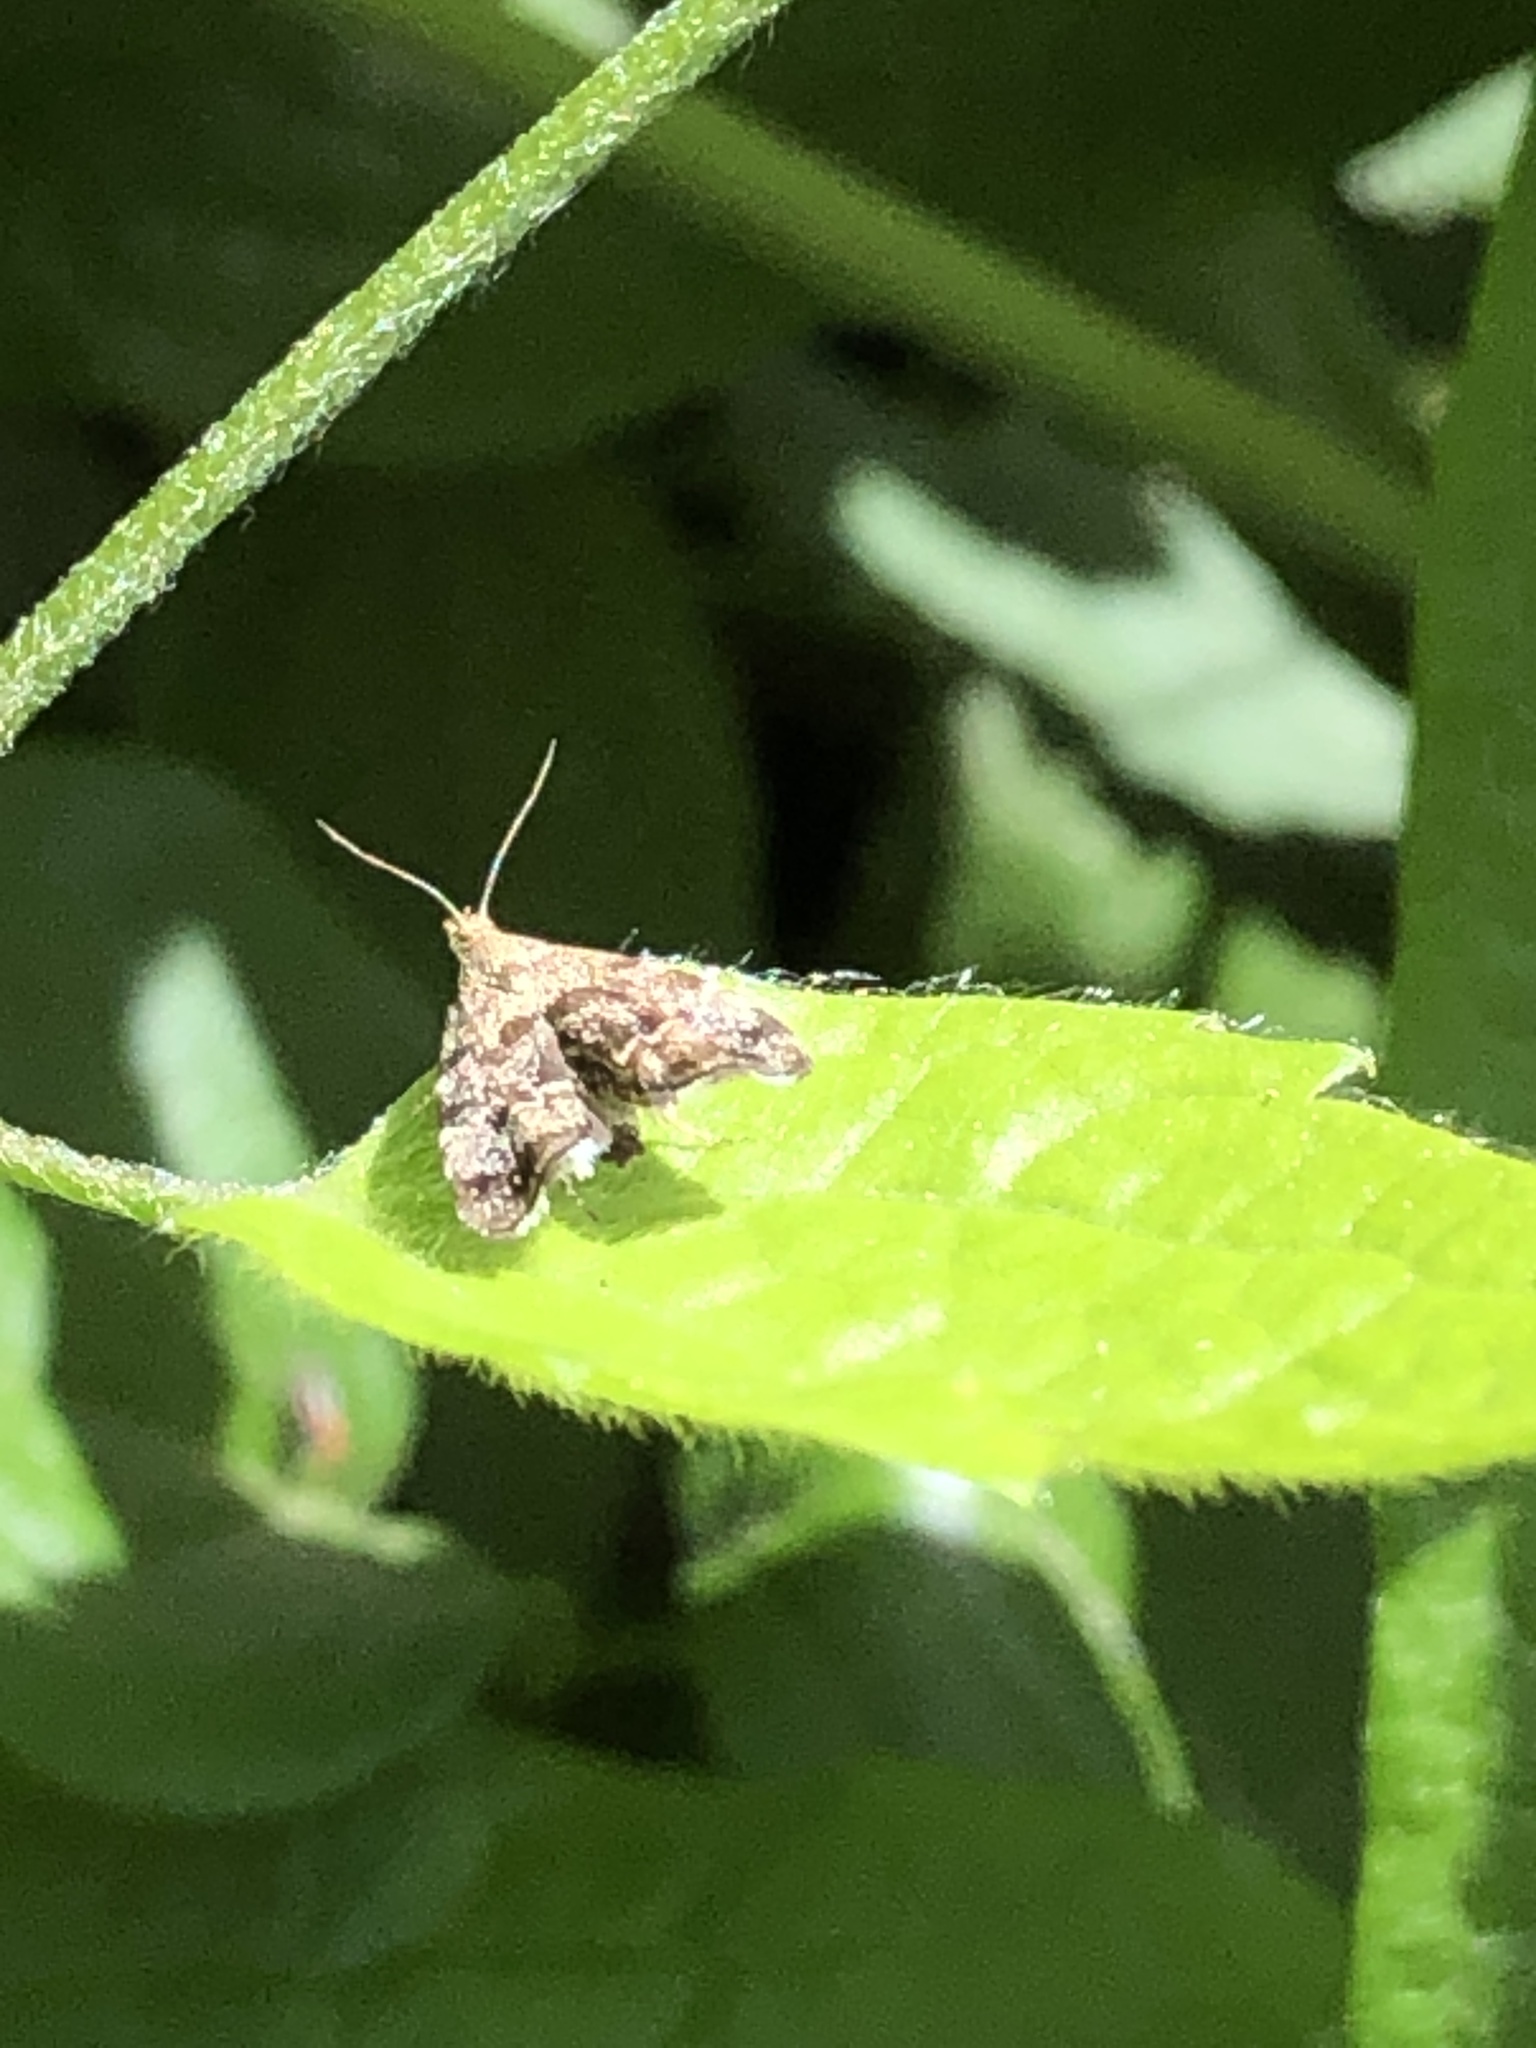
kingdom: Animalia
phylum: Arthropoda
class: Insecta
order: Lepidoptera
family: Choreutidae
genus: Anthophila
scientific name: Anthophila fabriciana
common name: Nettle-tap
